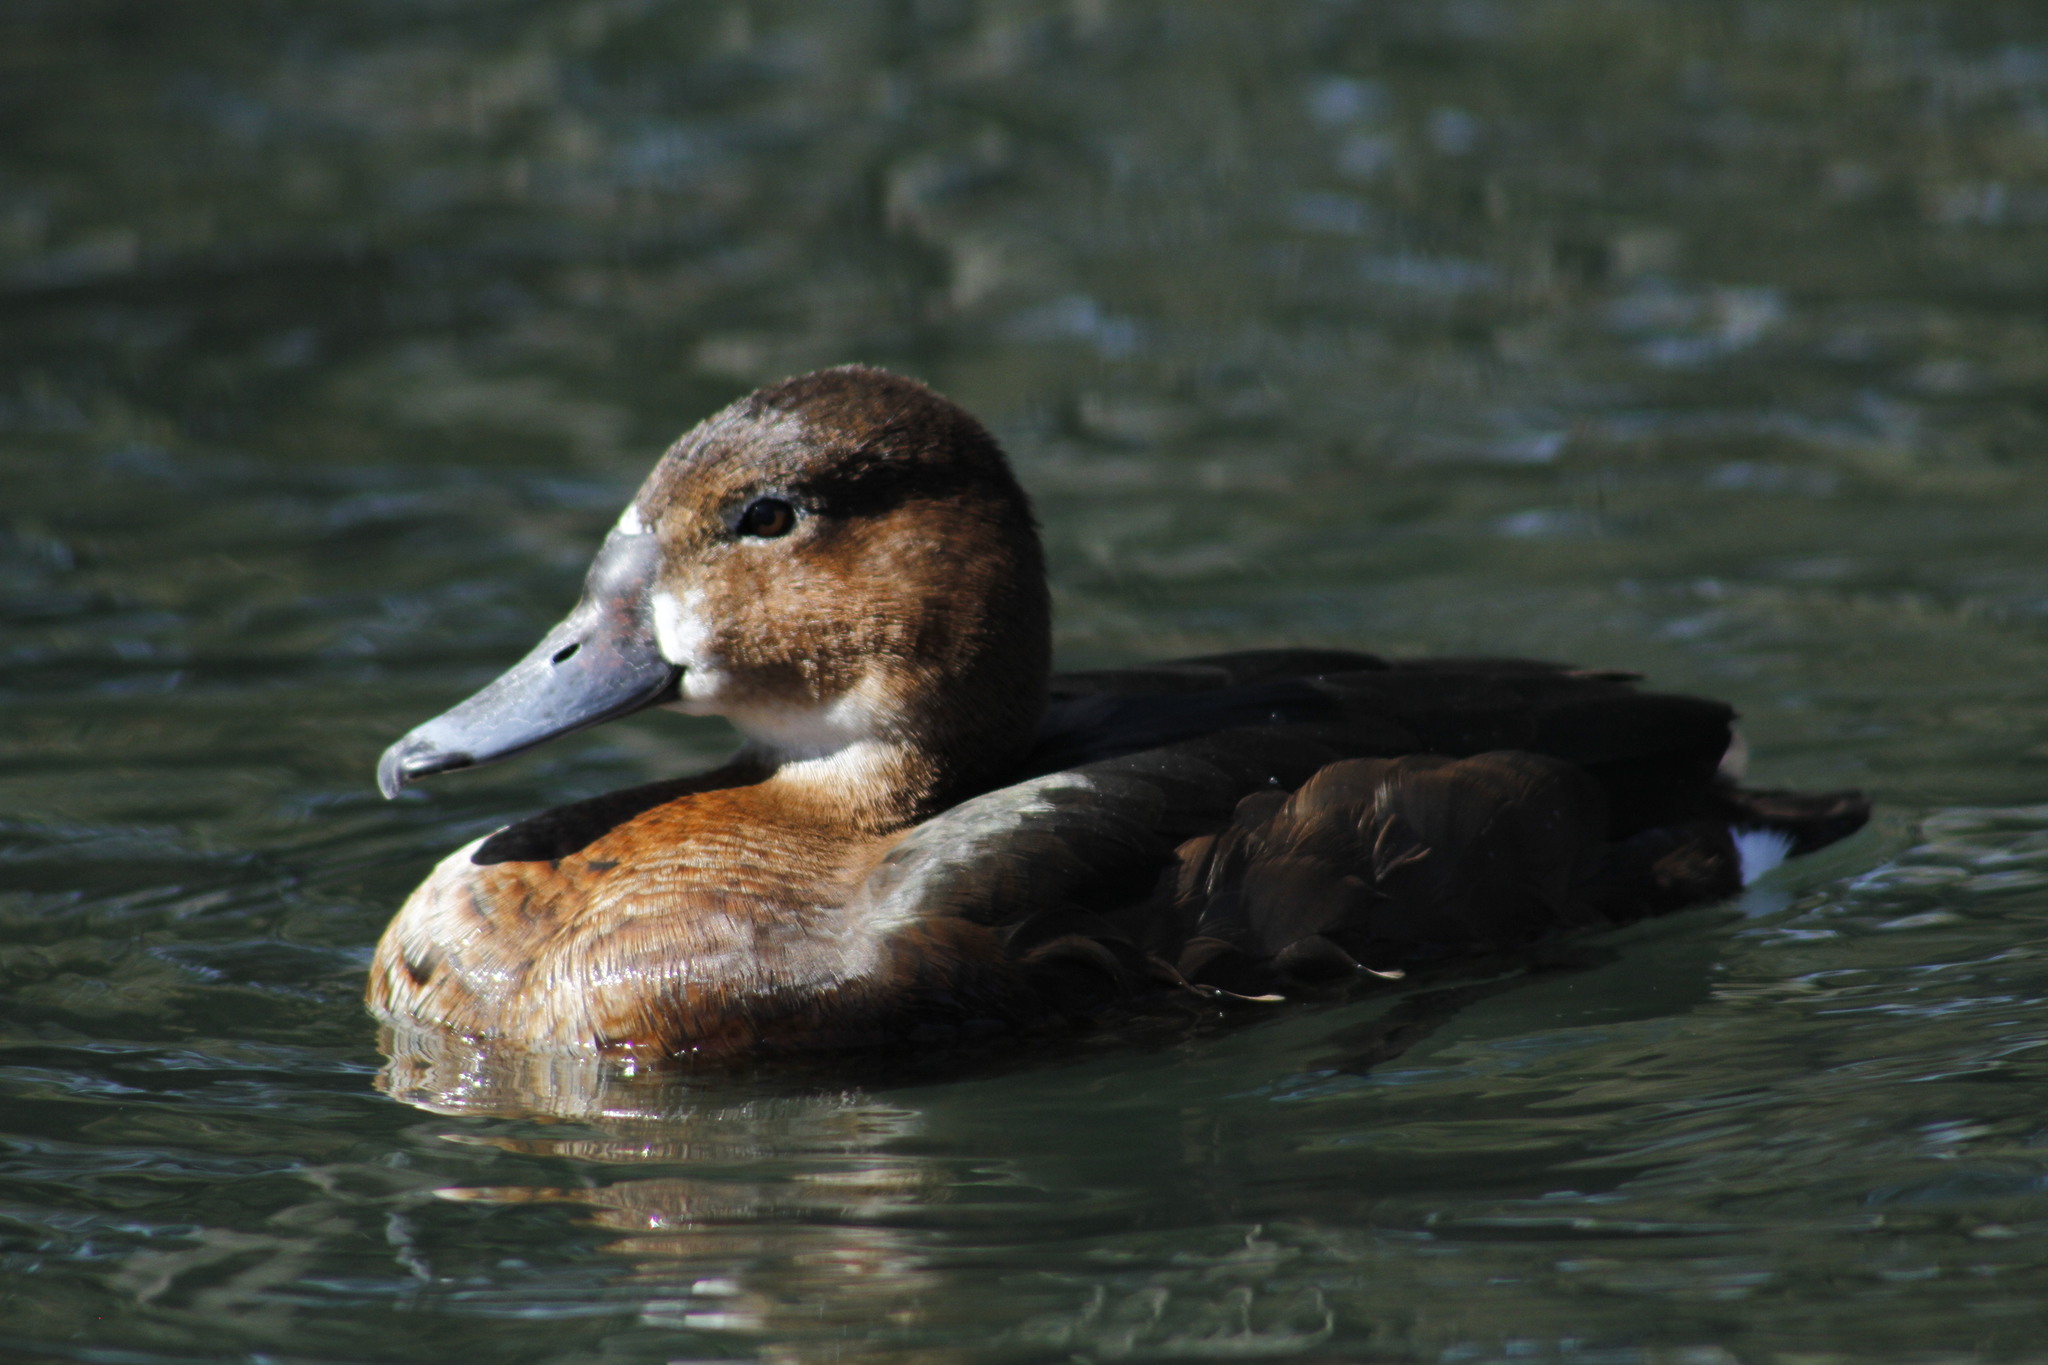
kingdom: Animalia
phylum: Chordata
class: Aves
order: Anseriformes
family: Anatidae
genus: Netta
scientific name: Netta peposaca
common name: Rosy-billed pochard
